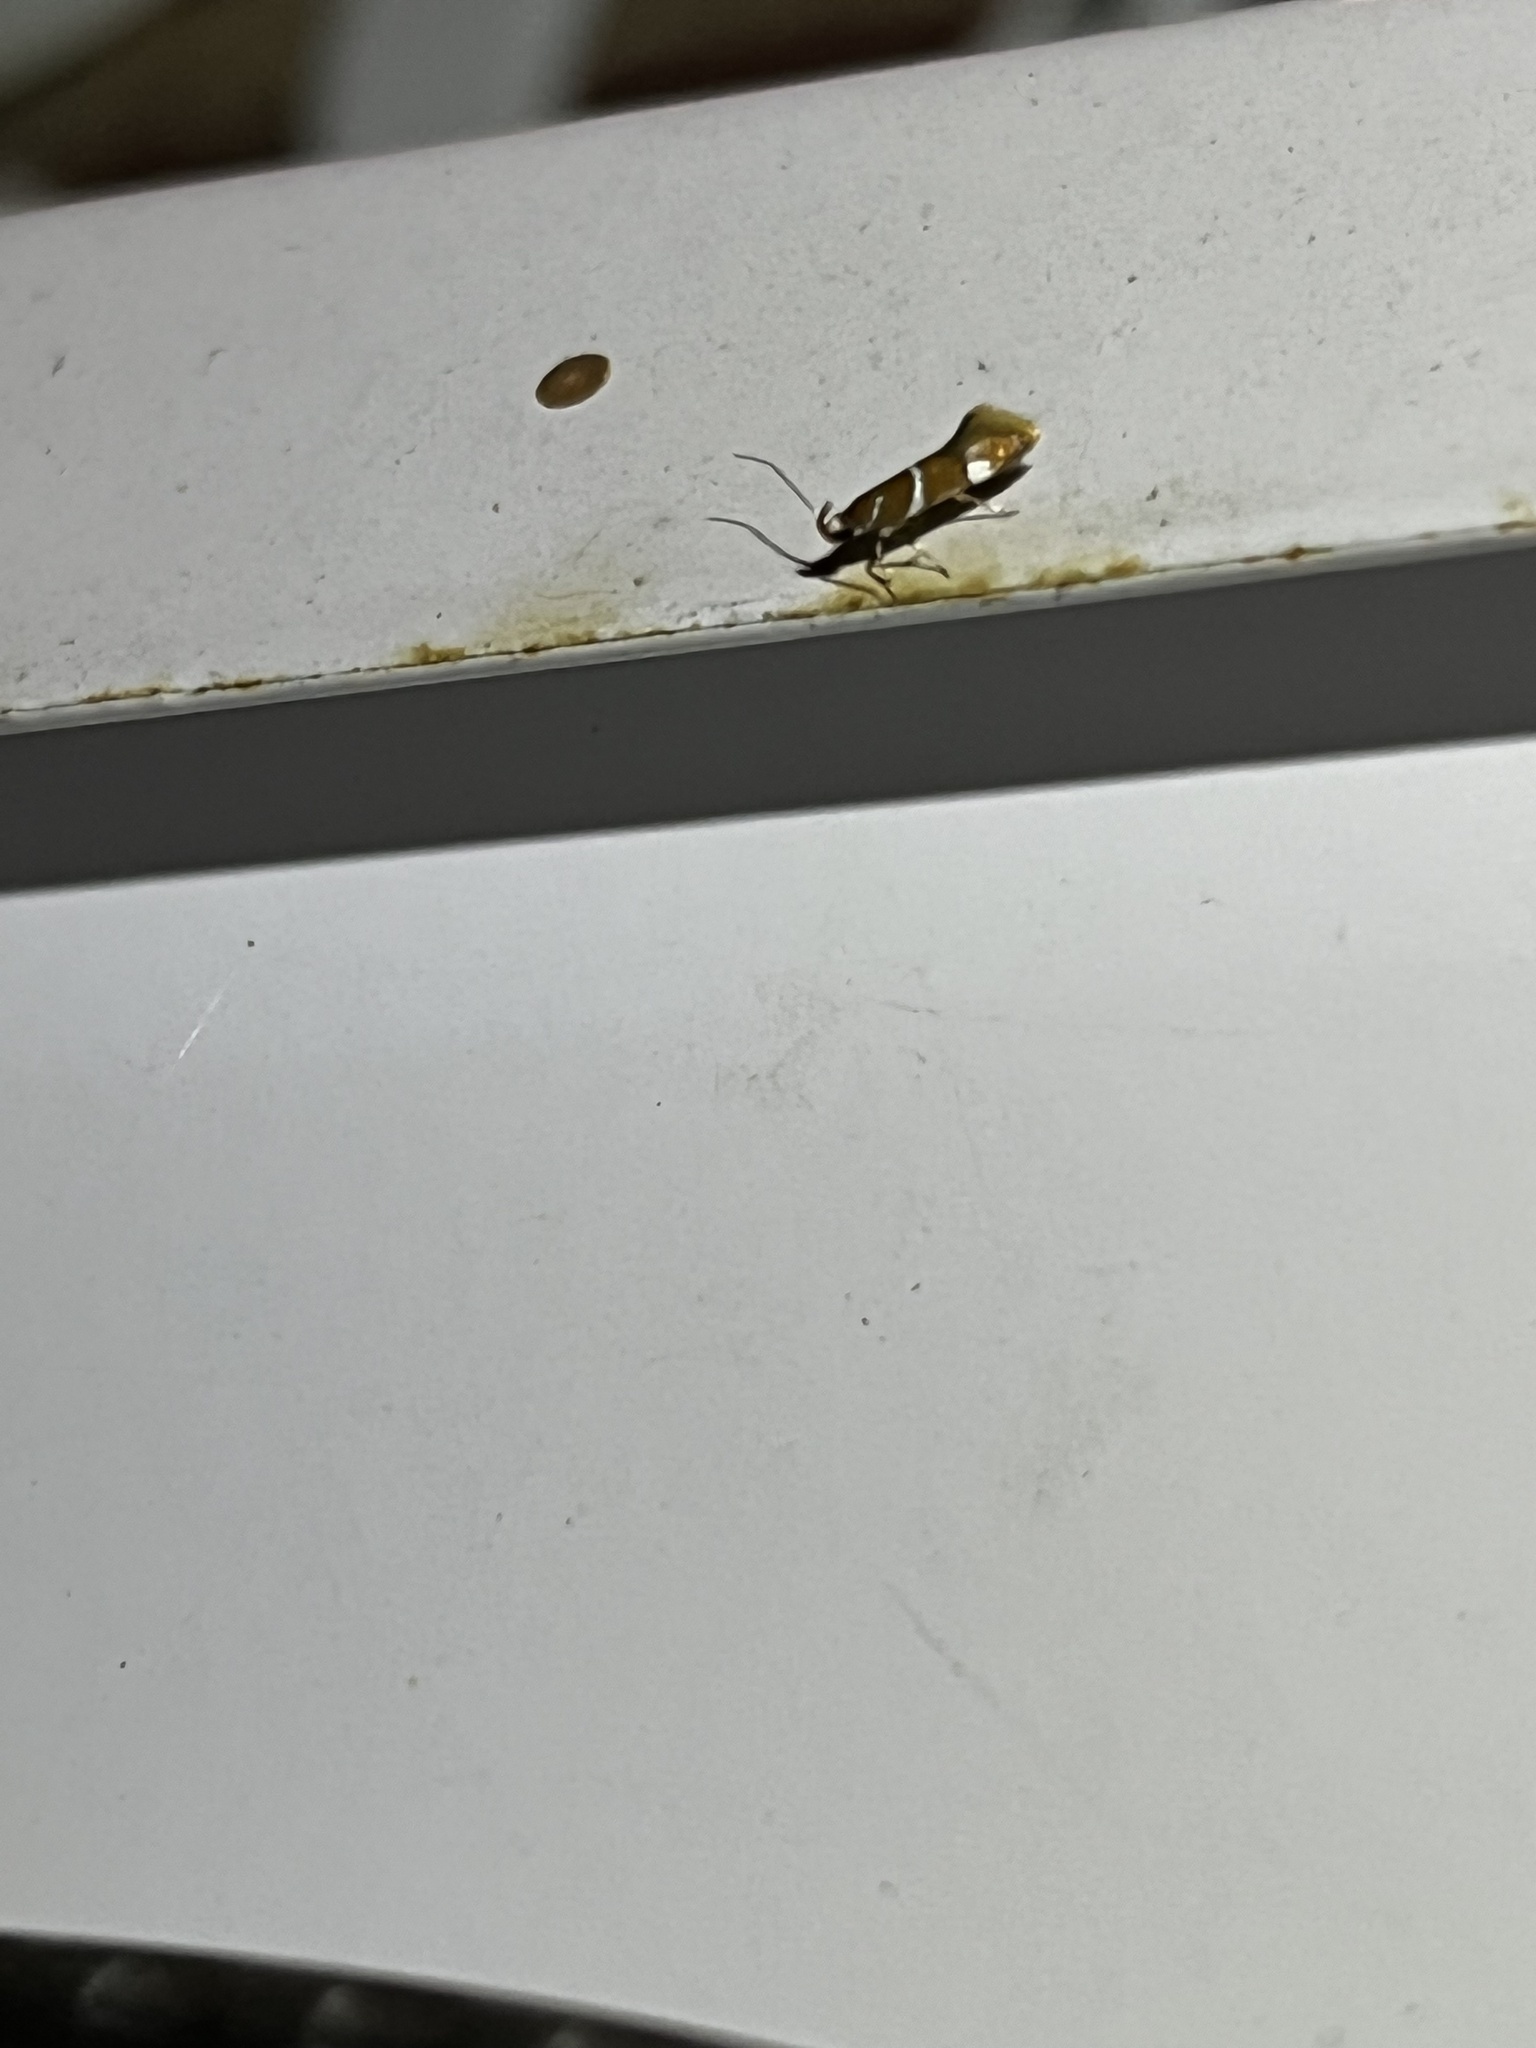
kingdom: Animalia
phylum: Arthropoda
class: Insecta
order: Lepidoptera
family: Oecophoridae
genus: Promalactis
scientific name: Promalactis suzukiella
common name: Moth
